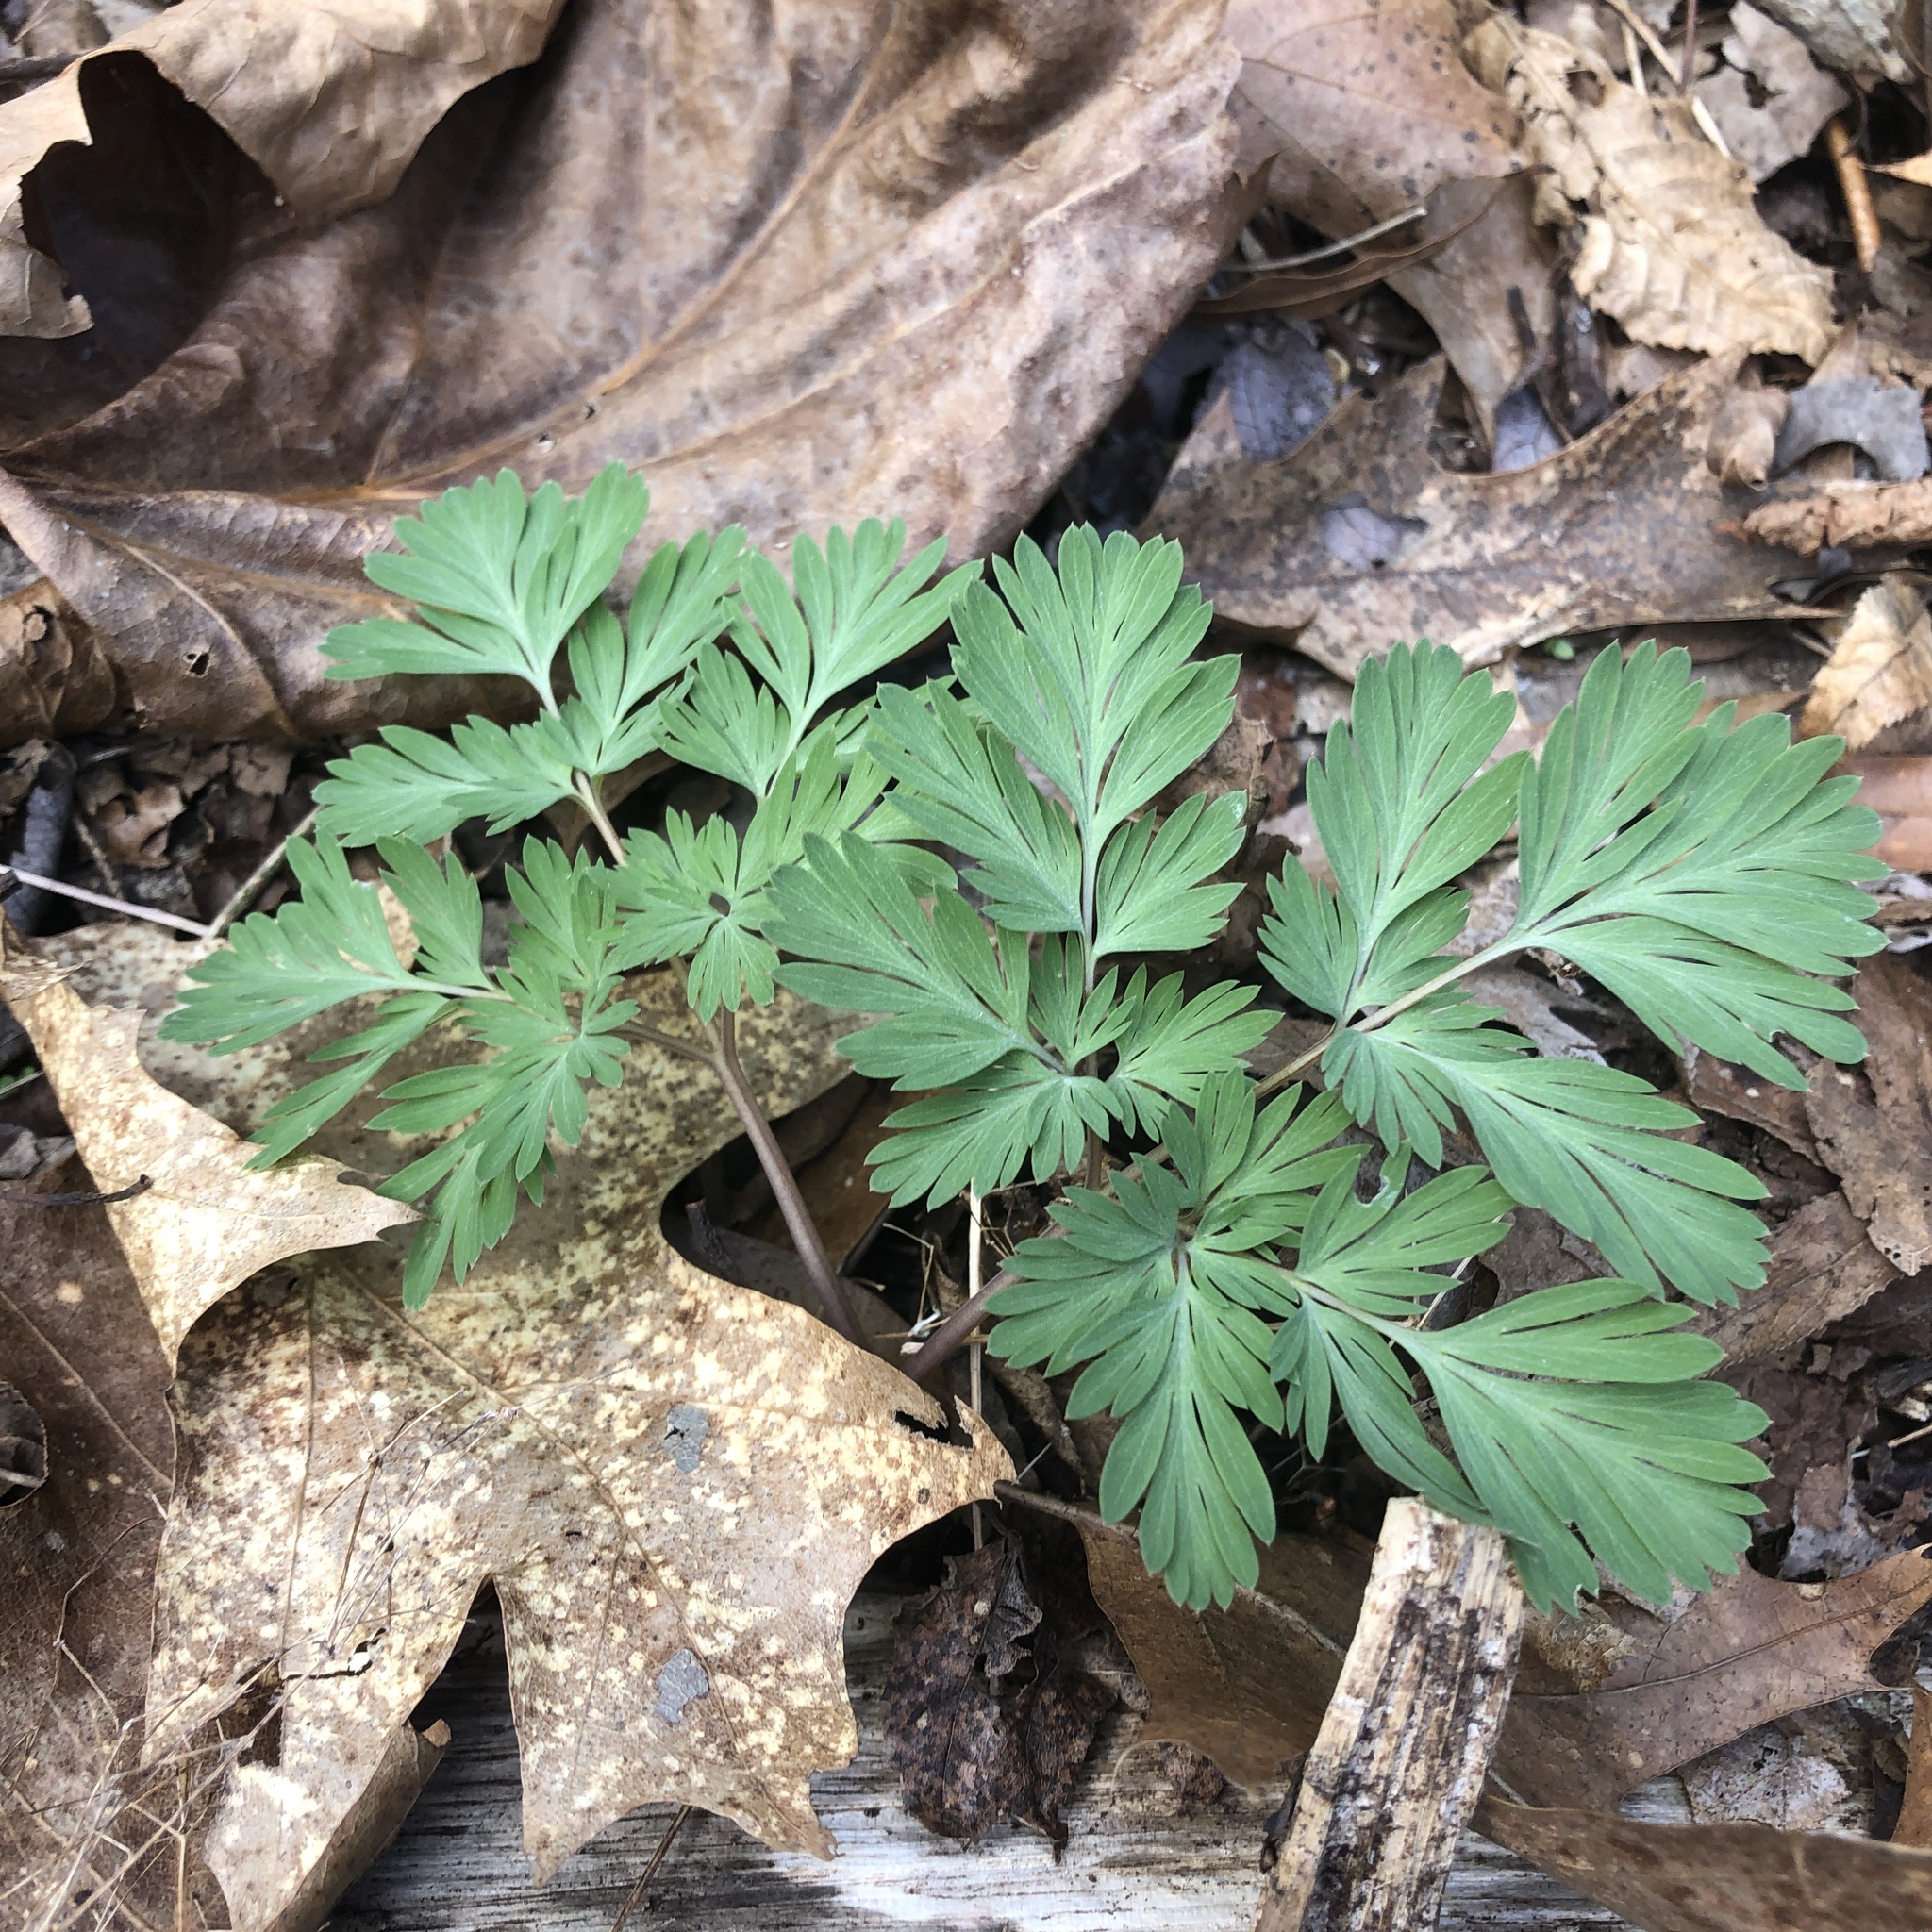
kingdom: Plantae
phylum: Tracheophyta
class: Magnoliopsida
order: Ranunculales
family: Papaveraceae
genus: Dicentra
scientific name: Dicentra cucullaria
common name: Dutchman's breeches
